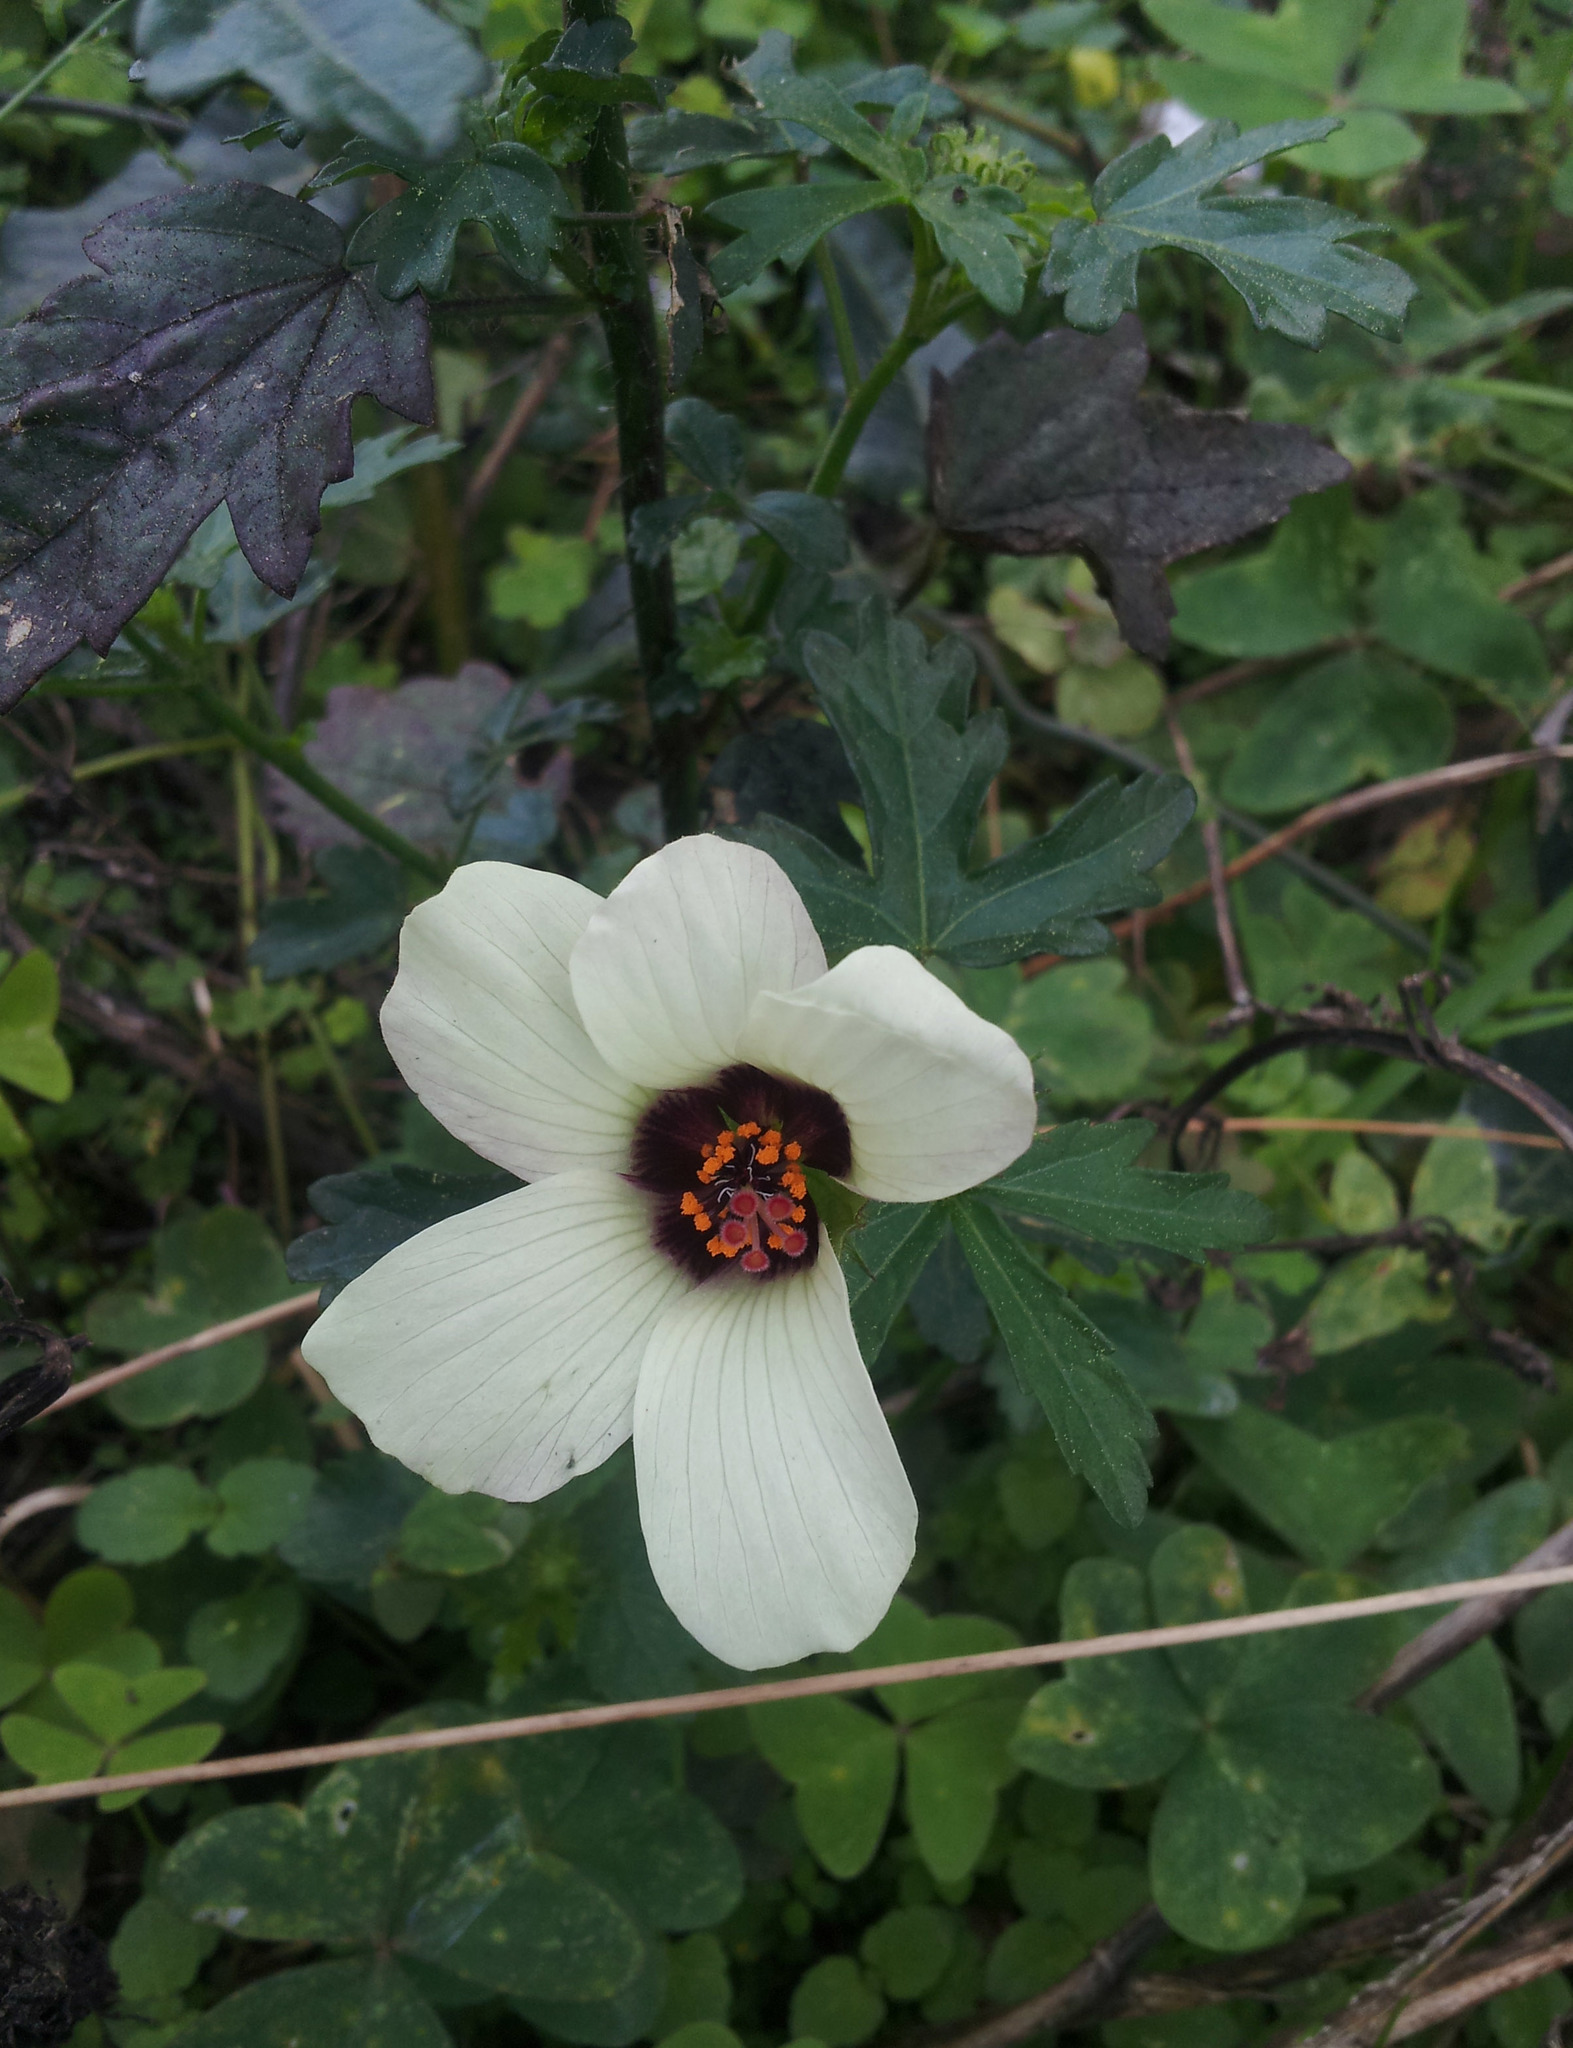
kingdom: Plantae
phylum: Tracheophyta
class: Magnoliopsida
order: Malvales
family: Malvaceae
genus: Hibiscus
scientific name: Hibiscus trionum
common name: Bladder ketmia
